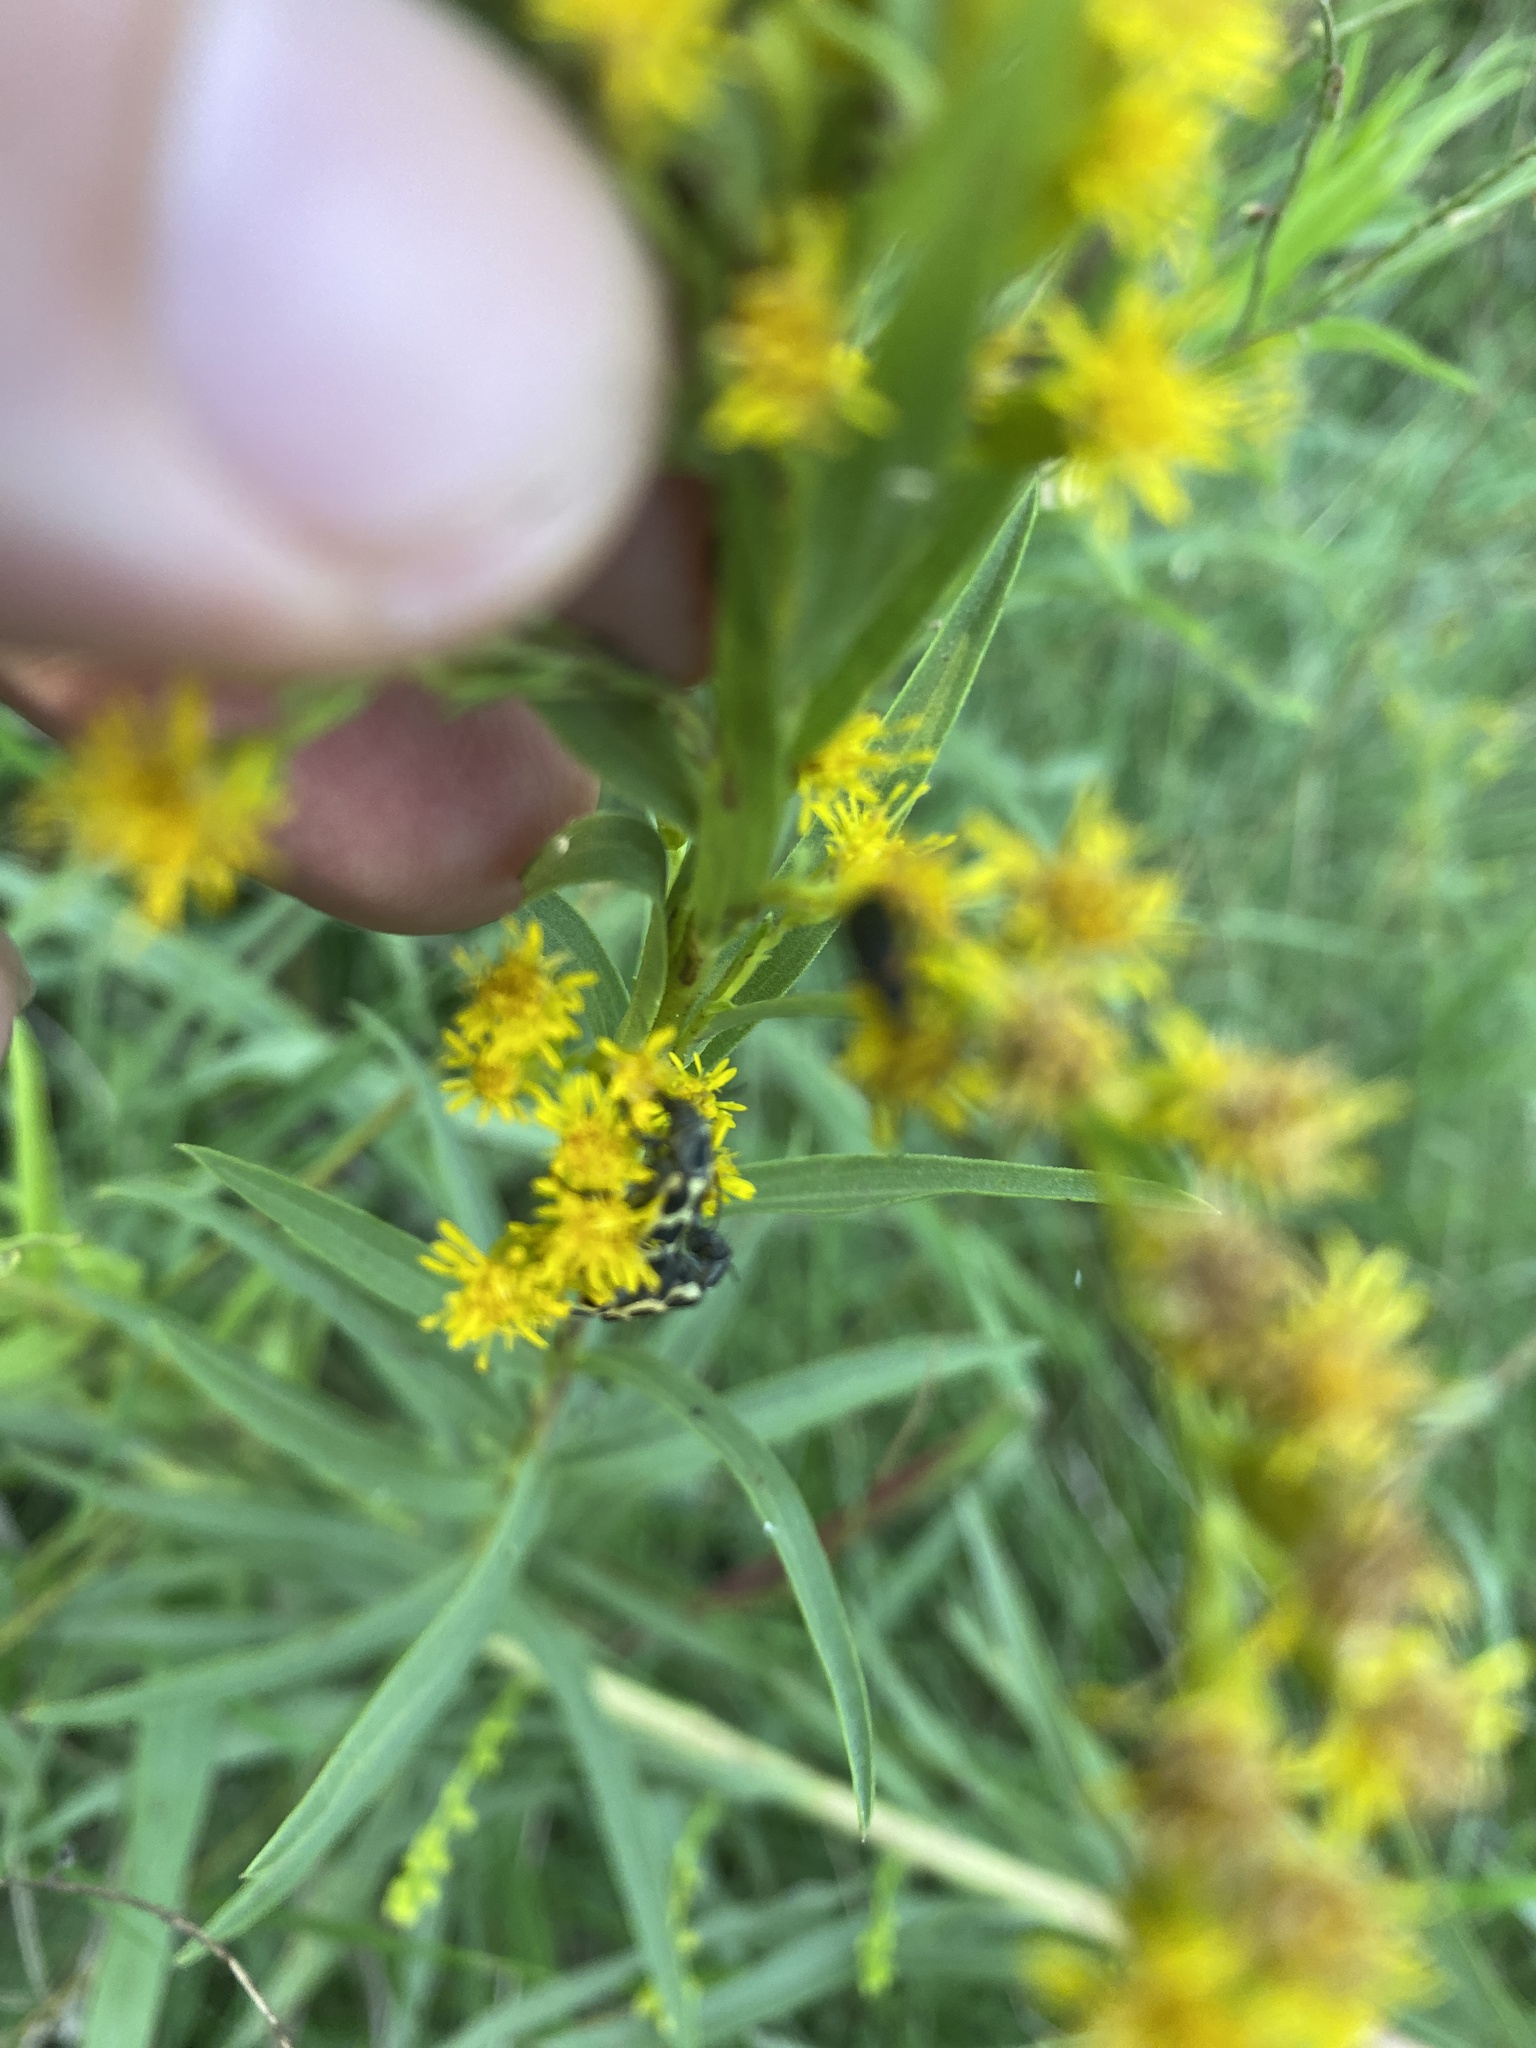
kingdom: Plantae
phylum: Tracheophyta
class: Magnoliopsida
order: Asterales
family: Asteraceae
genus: Solidago
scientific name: Solidago chilensis
